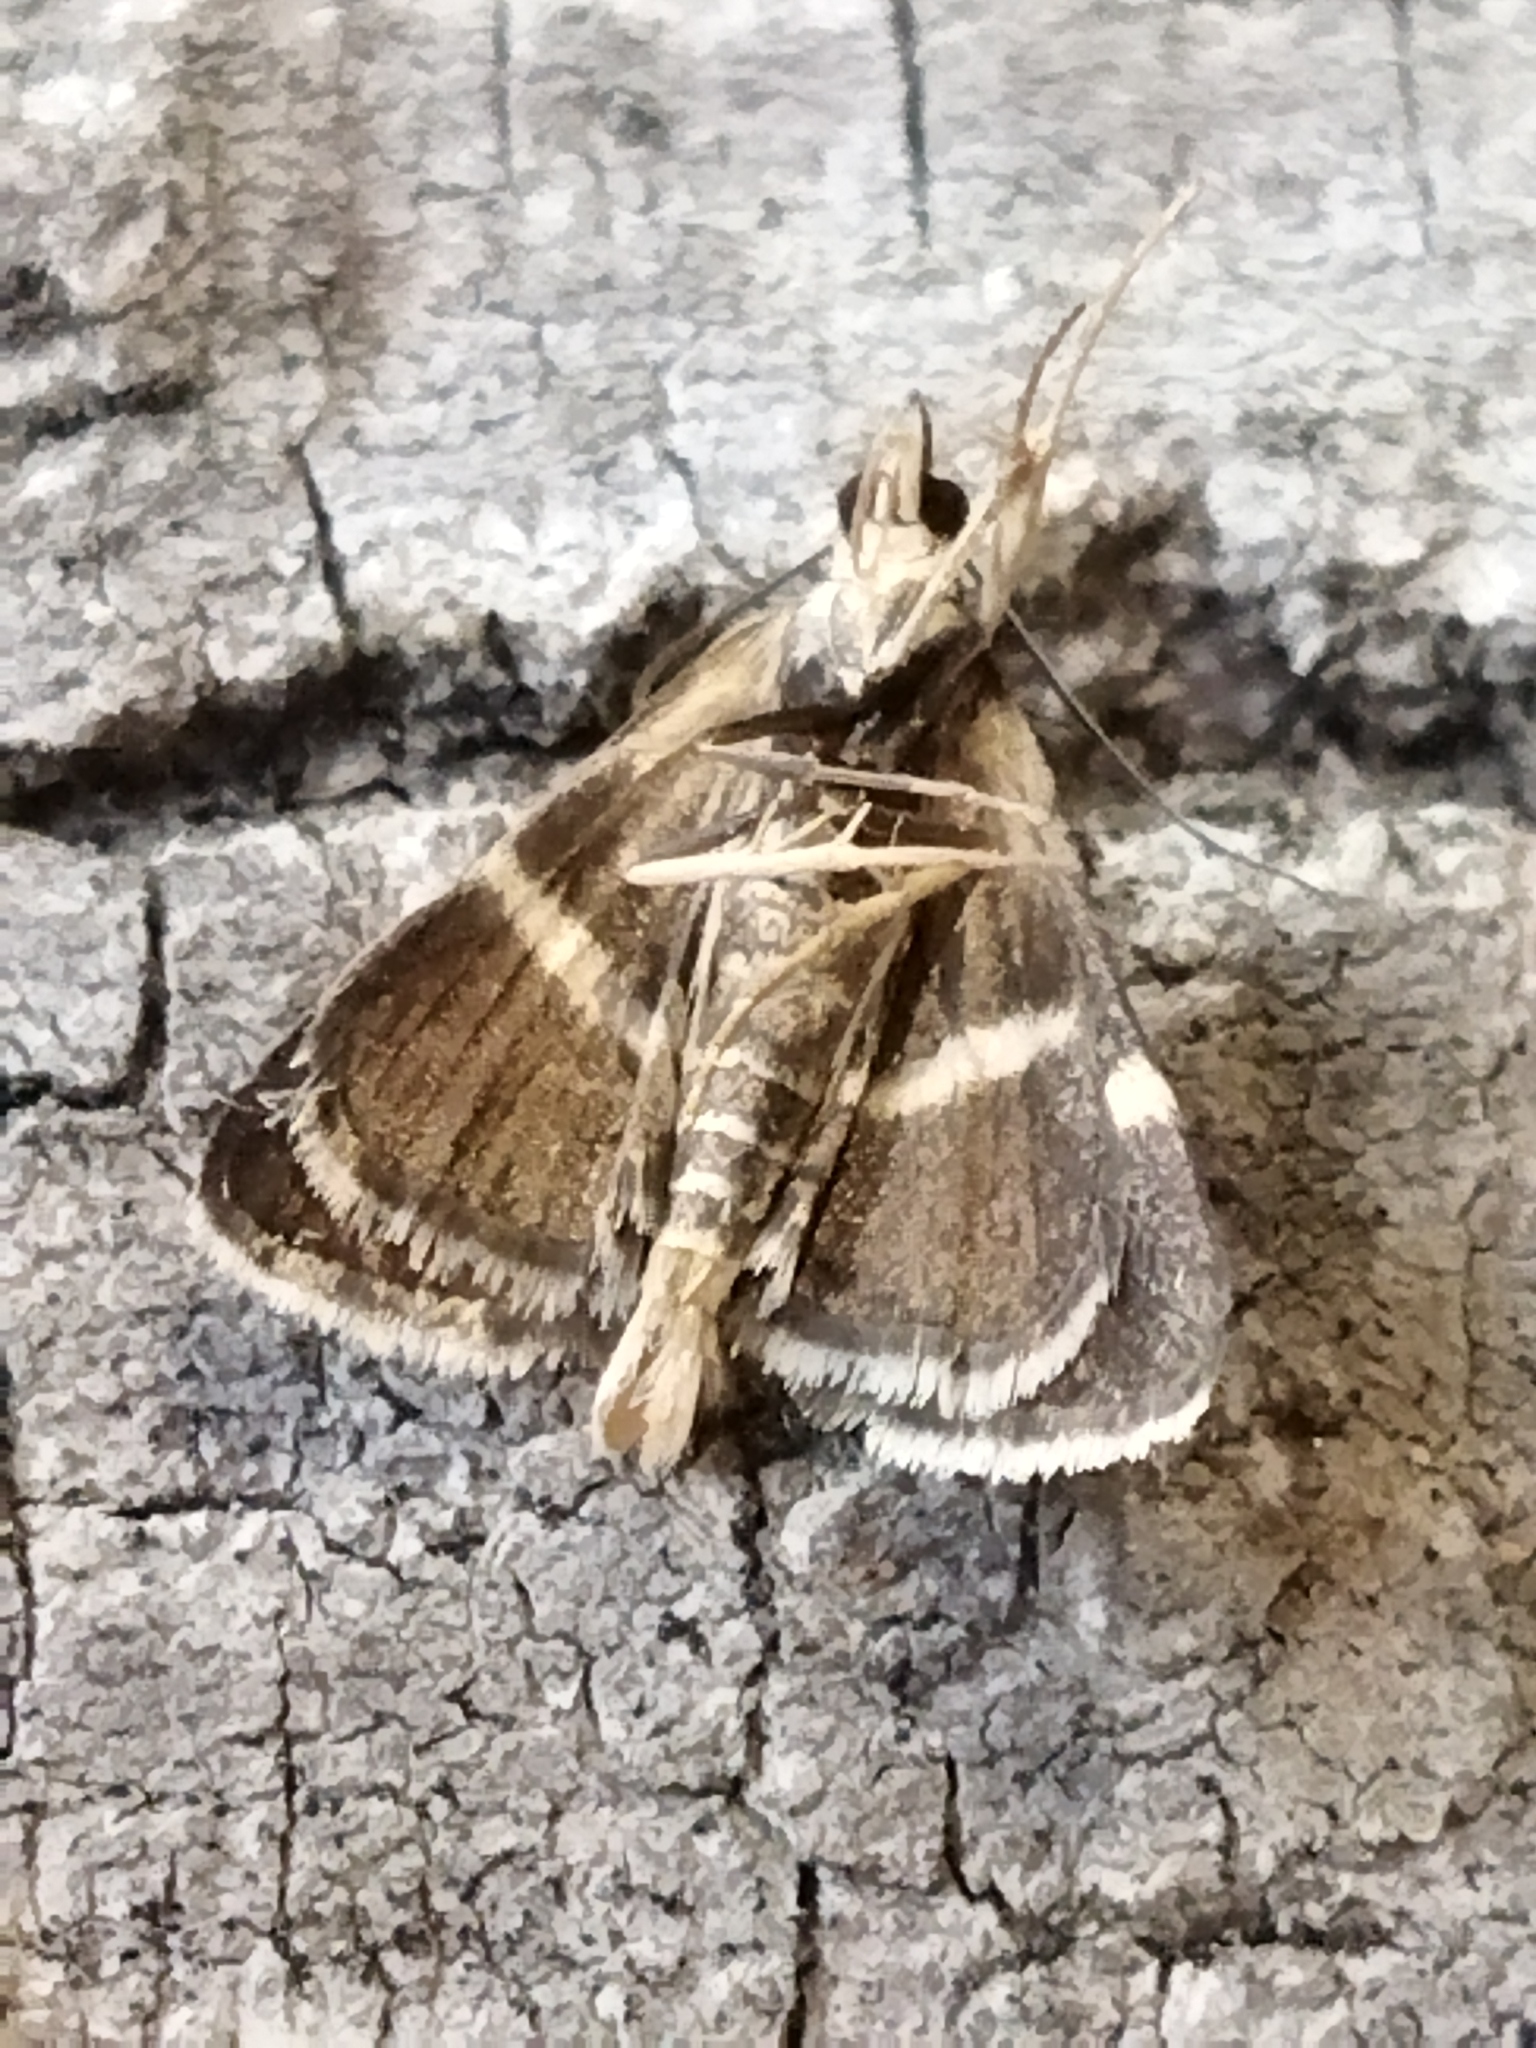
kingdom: Animalia
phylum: Arthropoda
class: Insecta
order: Lepidoptera
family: Crambidae
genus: Pyrausta
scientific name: Pyrausta cingulata
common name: Silver-barred sable
